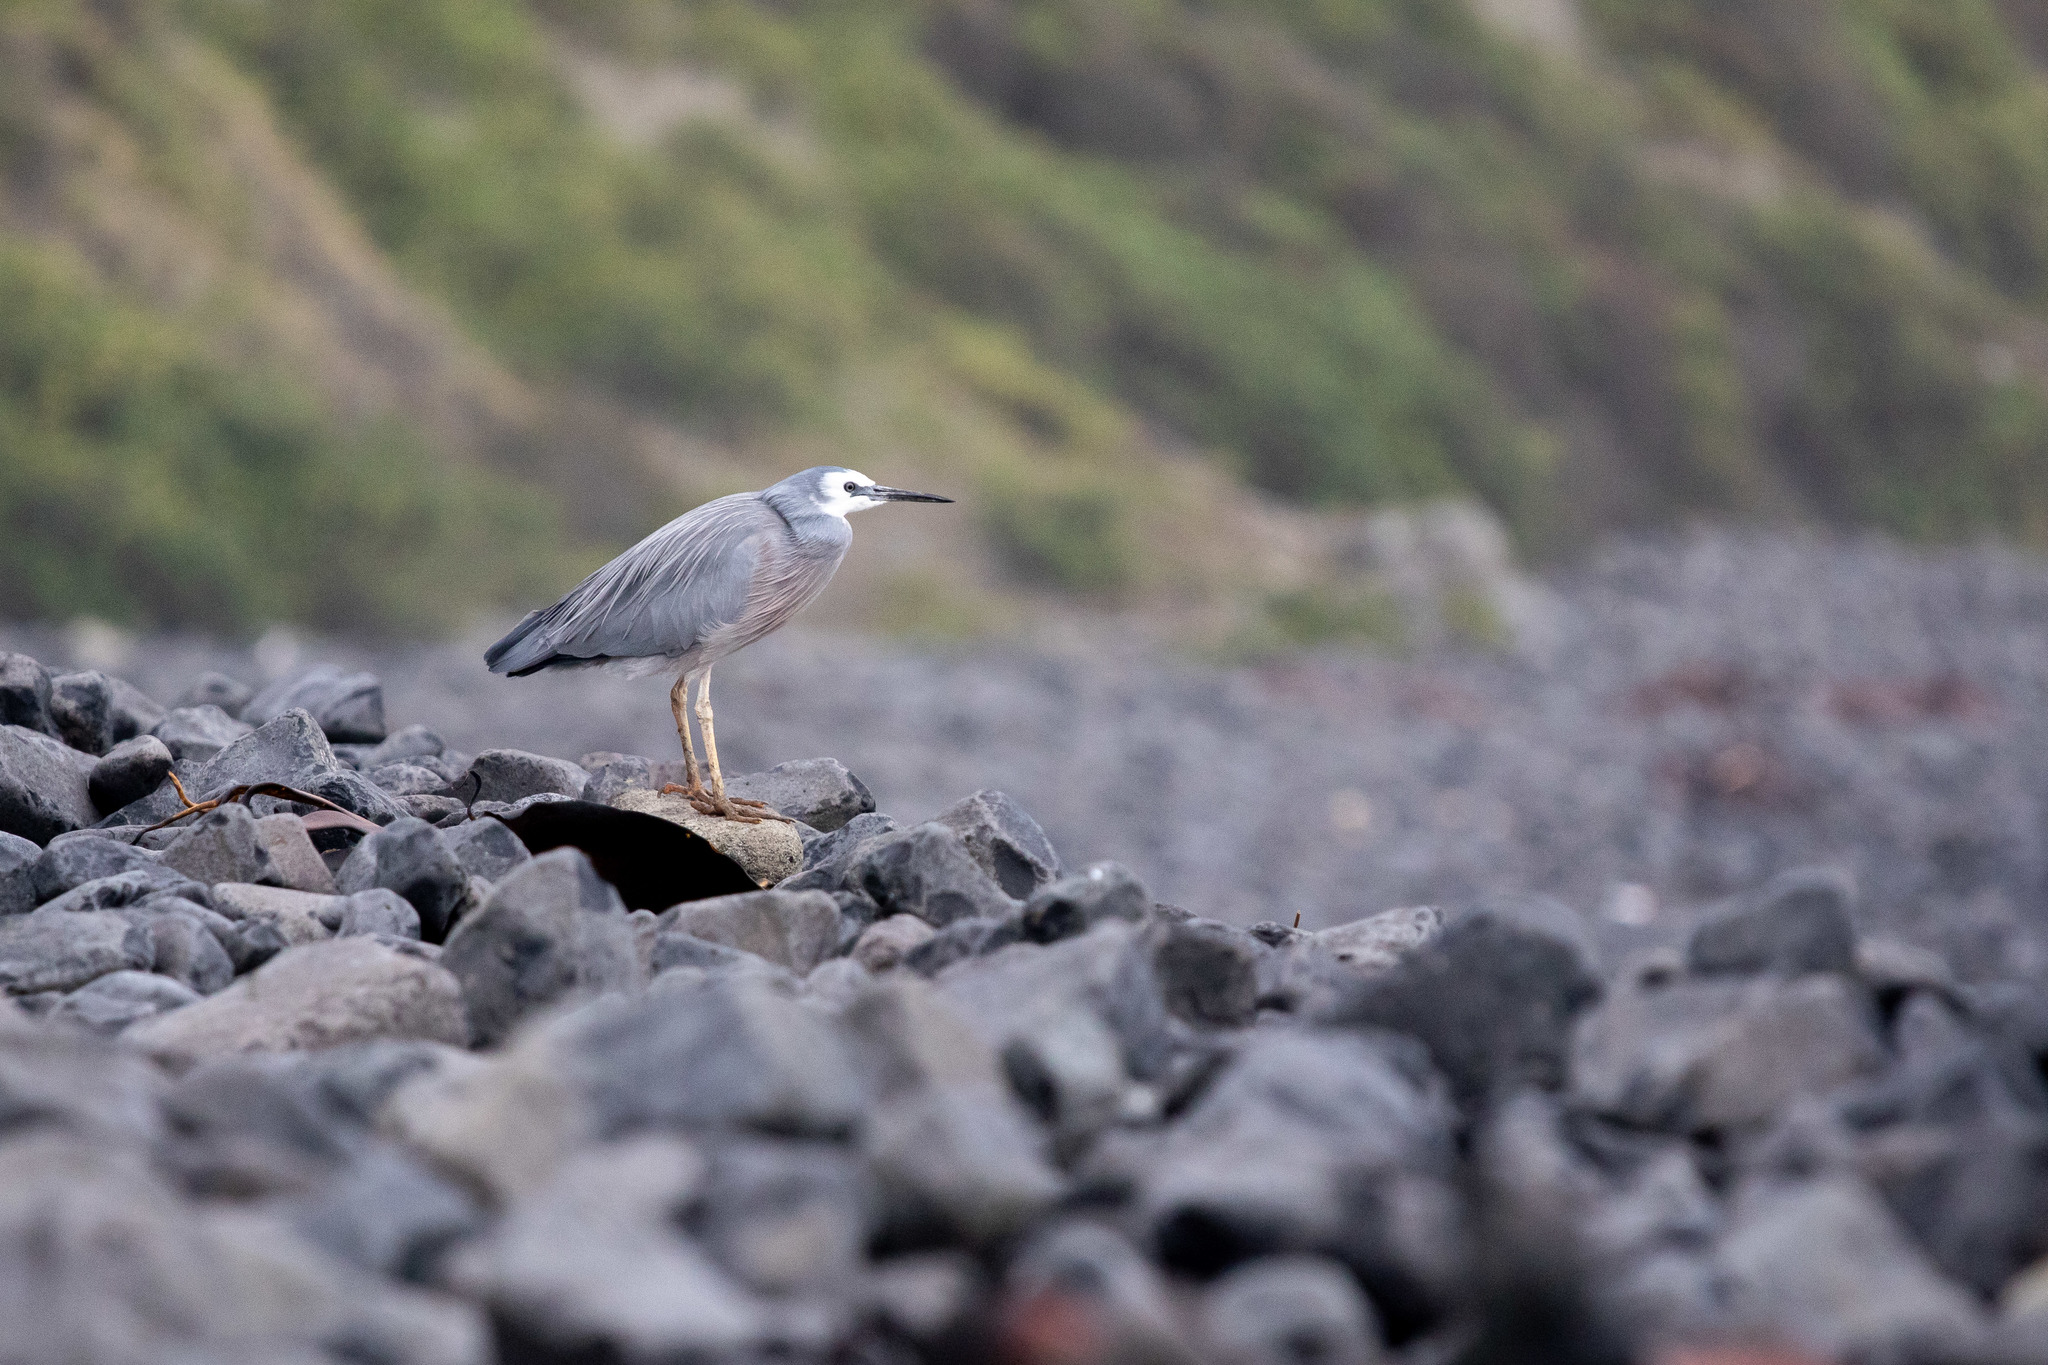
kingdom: Animalia
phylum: Chordata
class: Aves
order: Pelecaniformes
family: Ardeidae
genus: Egretta
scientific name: Egretta novaehollandiae
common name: White-faced heron
